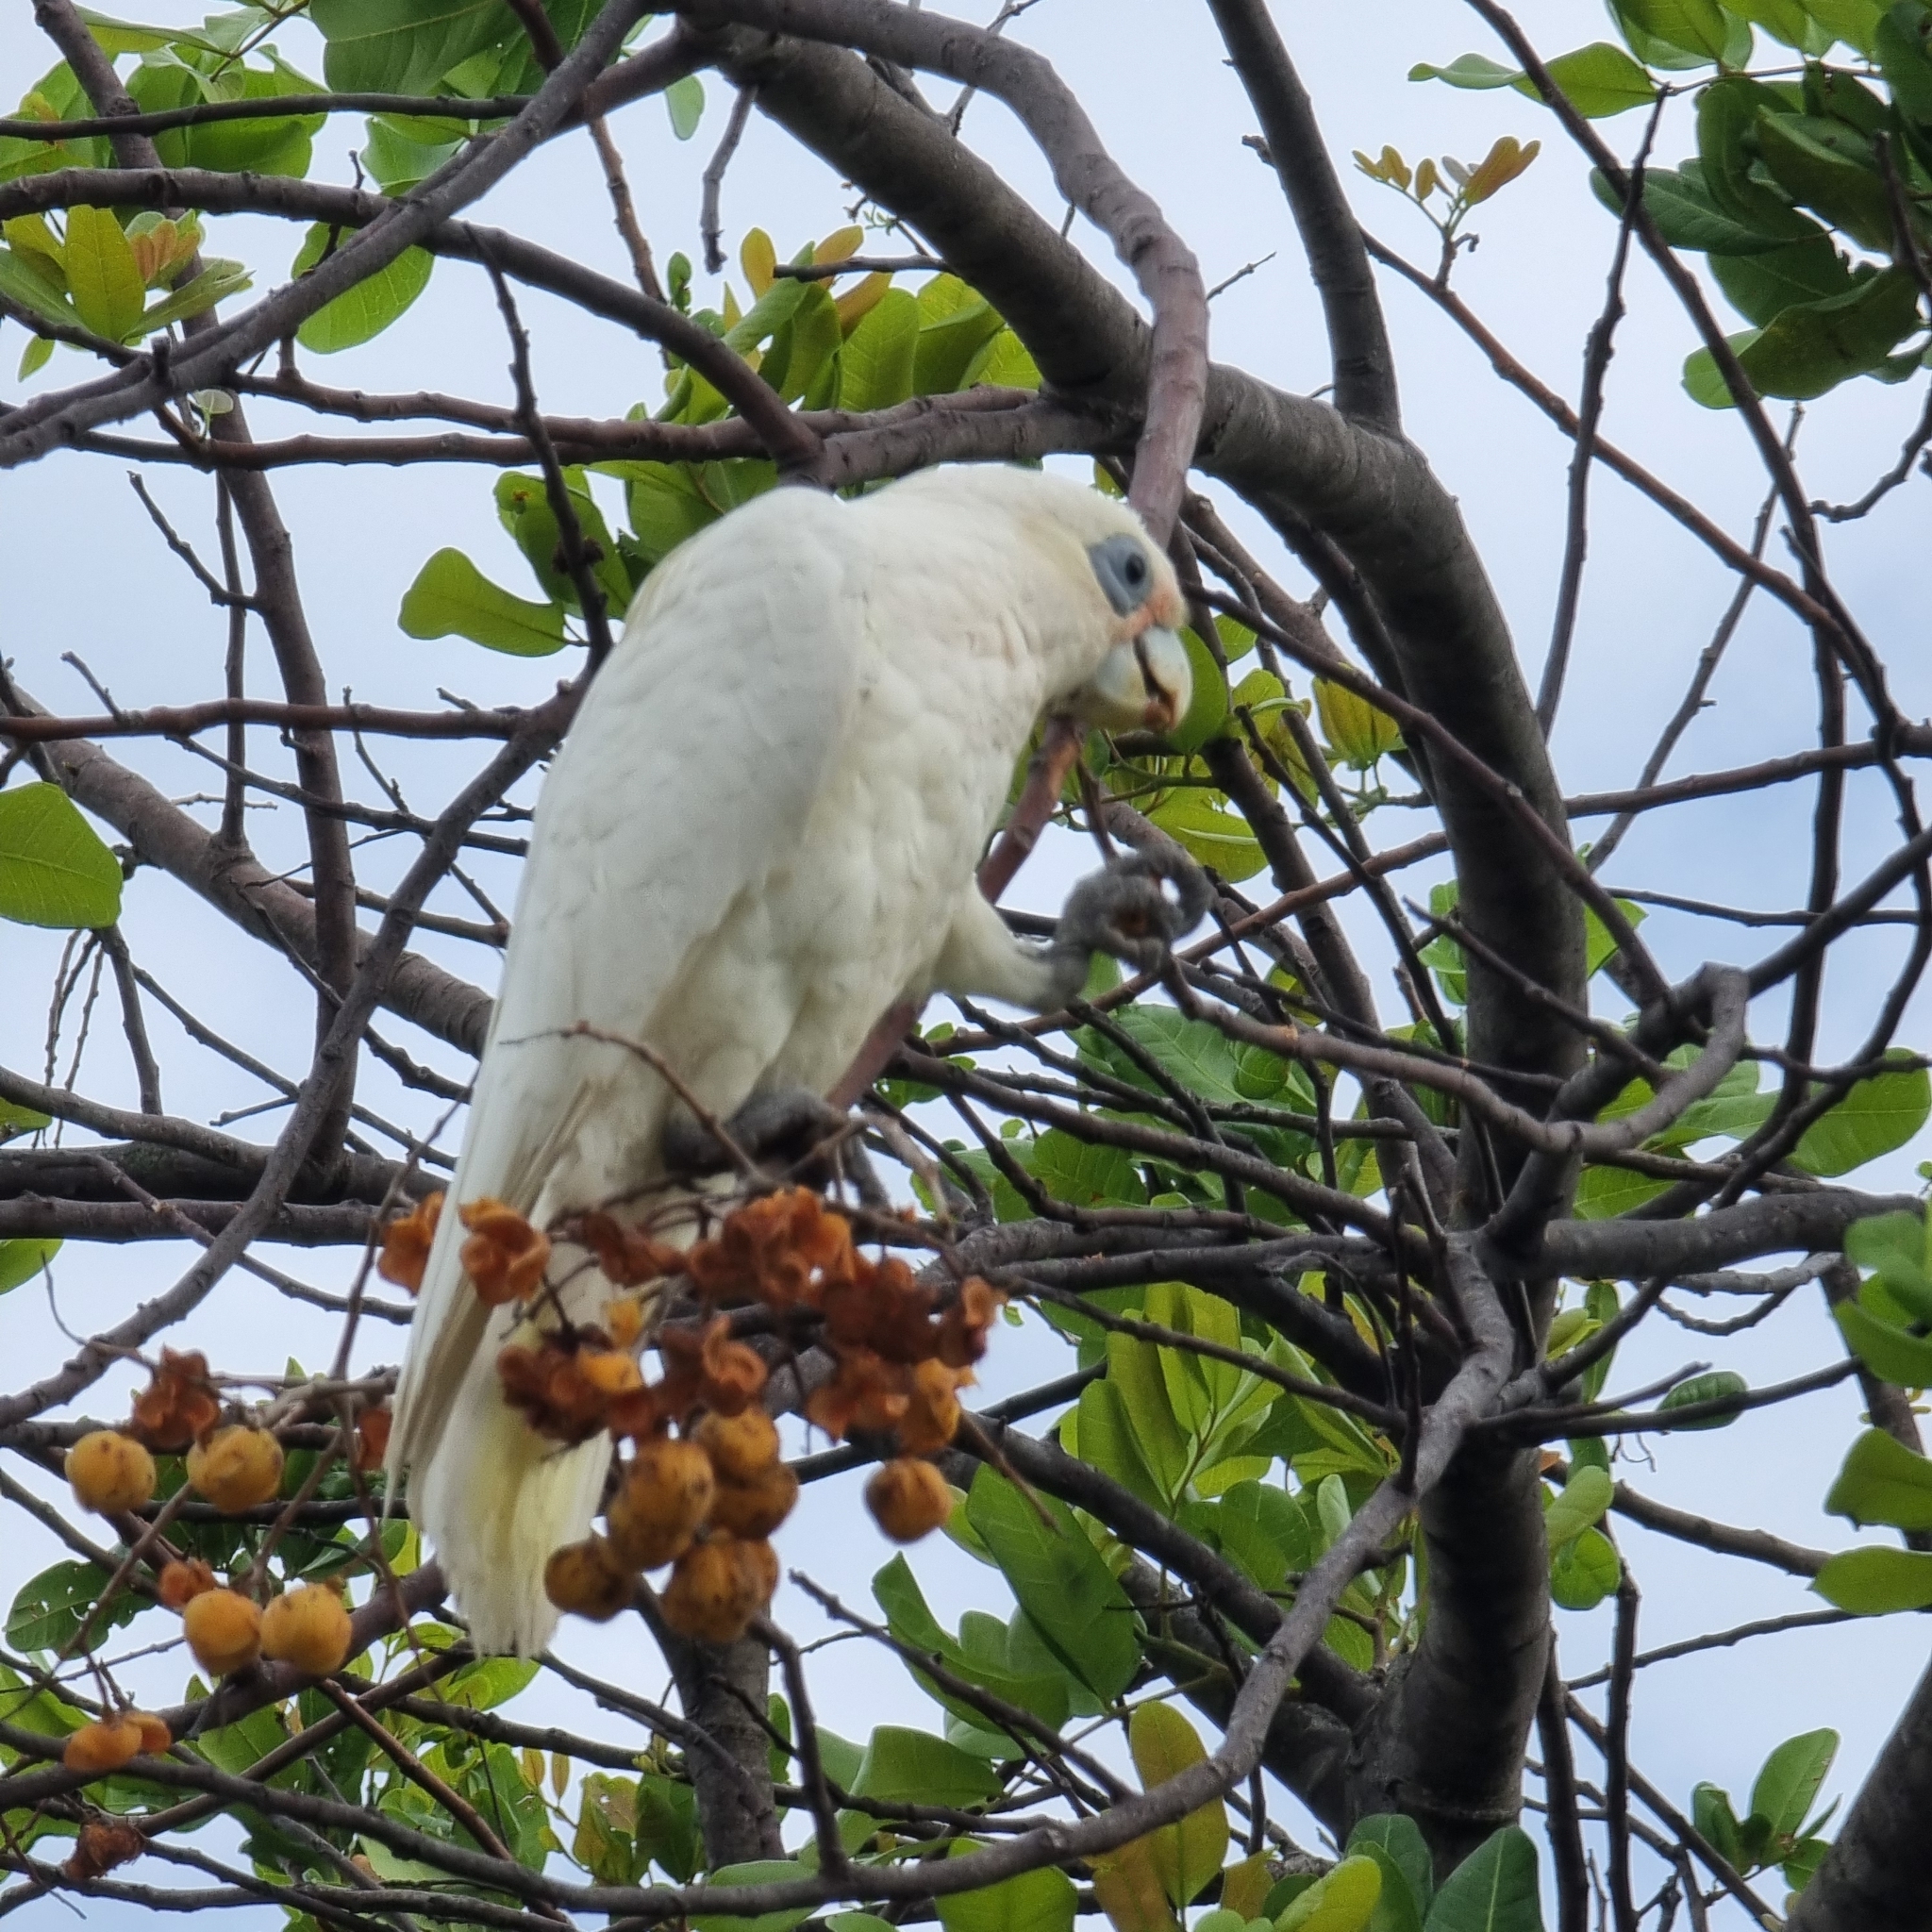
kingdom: Animalia
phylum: Chordata
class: Aves
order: Psittaciformes
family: Psittacidae
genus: Cacatua
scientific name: Cacatua sanguinea
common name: Little corella
